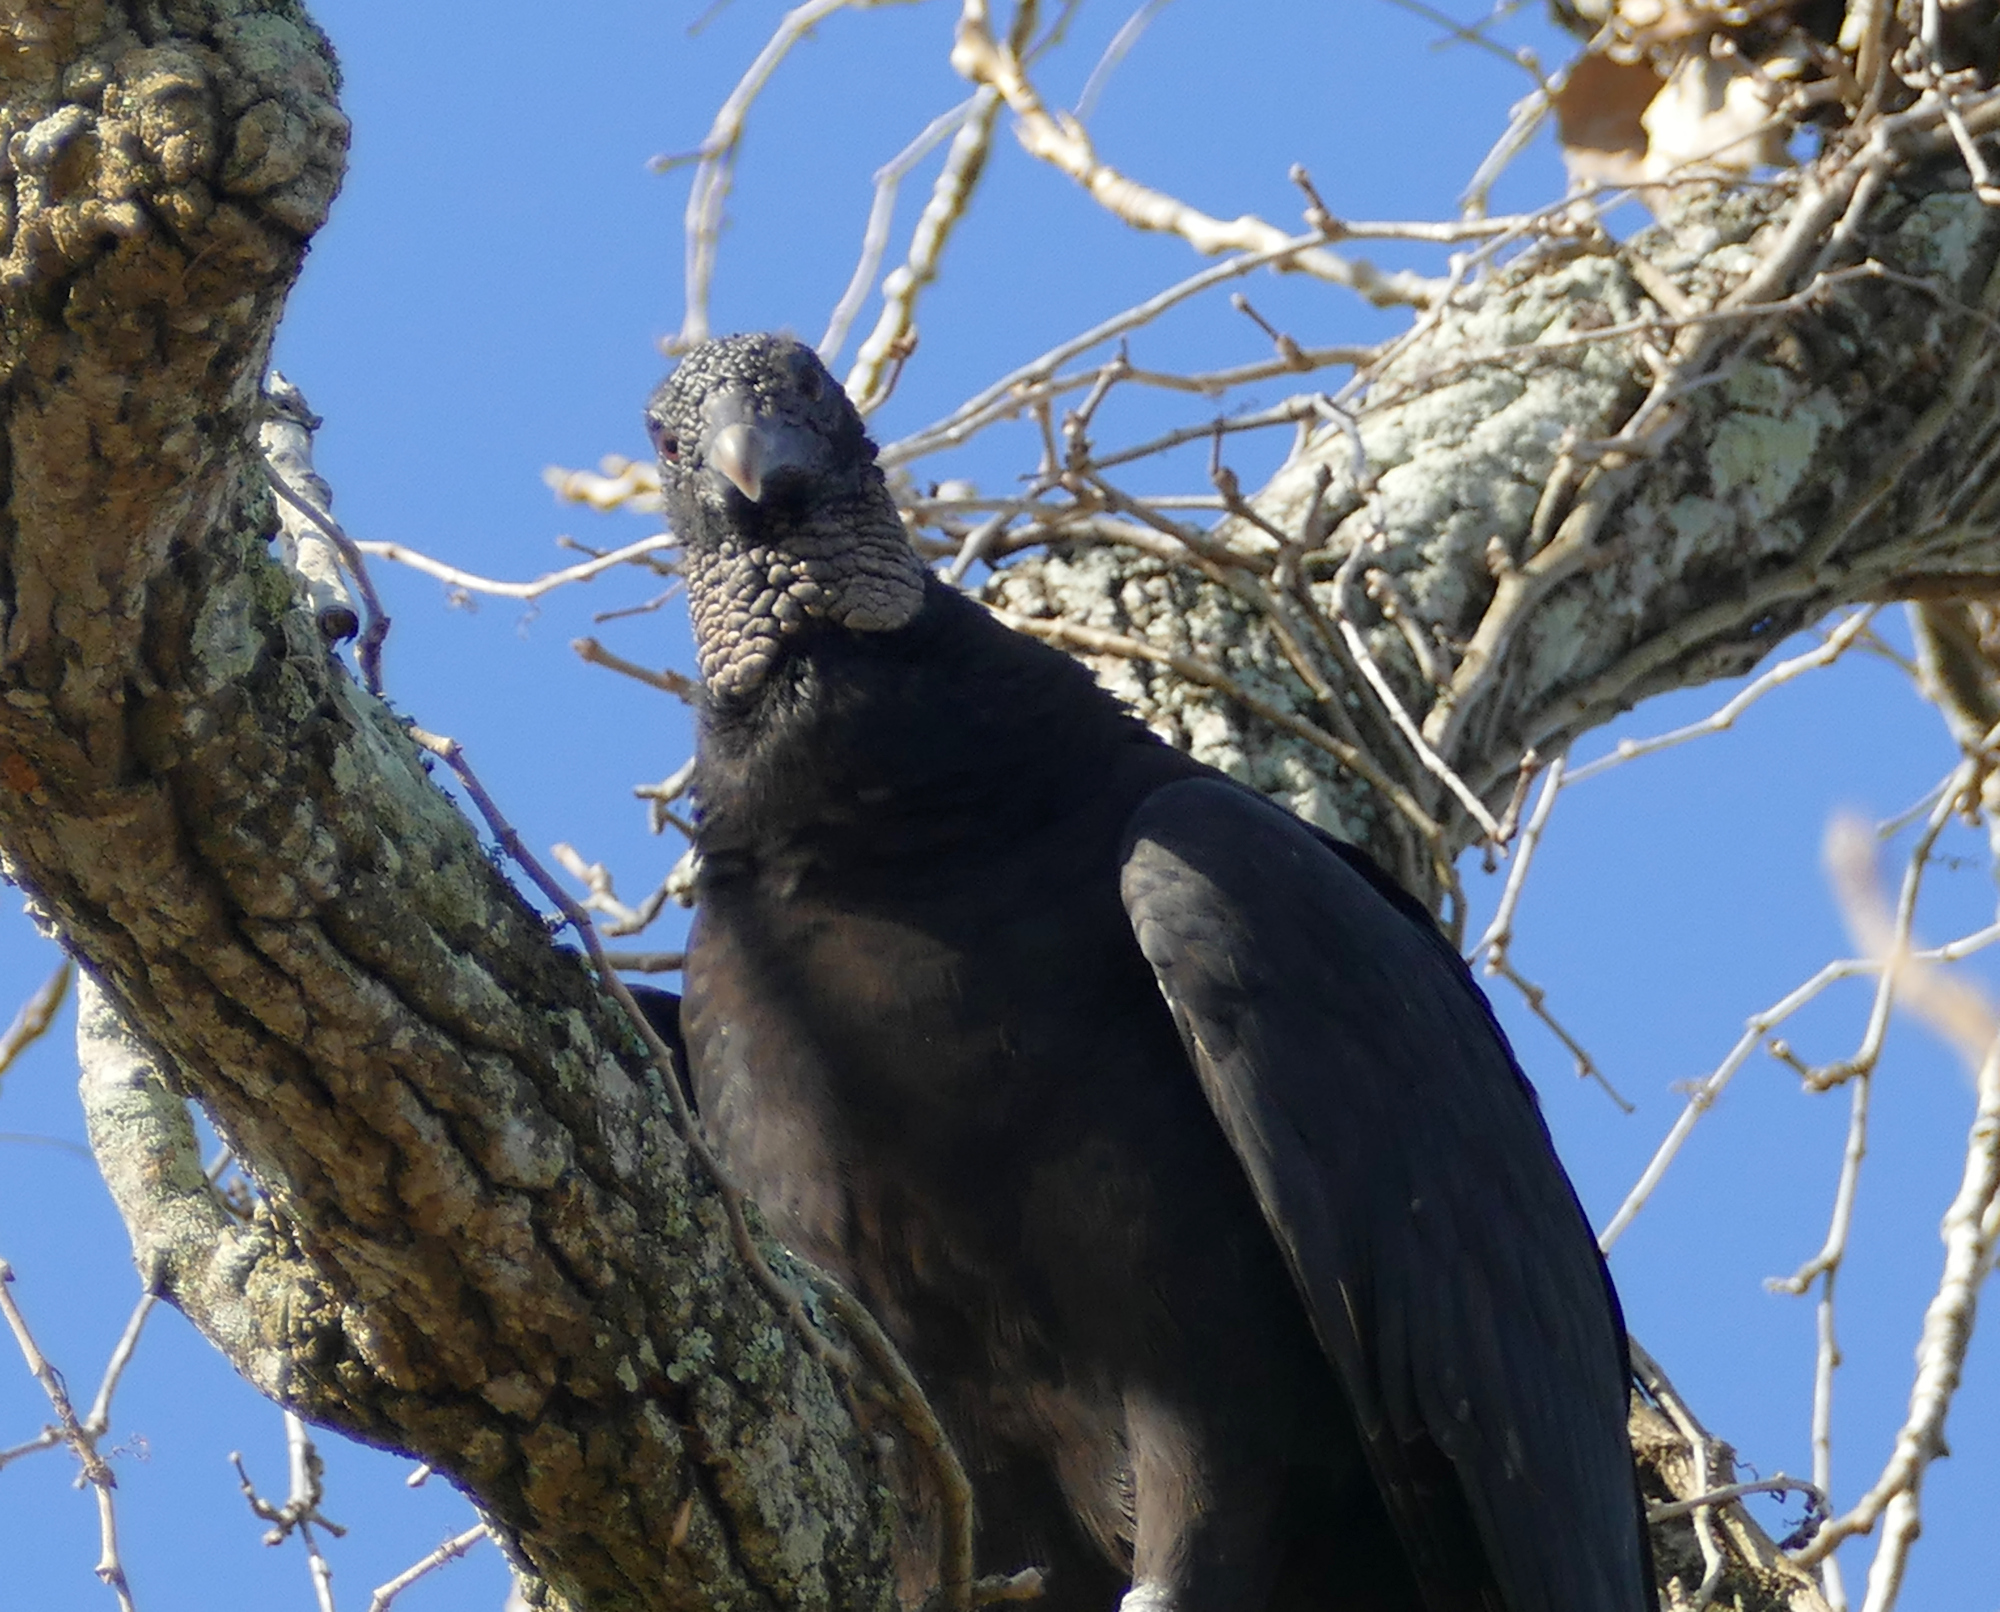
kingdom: Animalia
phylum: Chordata
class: Aves
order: Accipitriformes
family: Cathartidae
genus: Coragyps
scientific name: Coragyps atratus
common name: Black vulture
